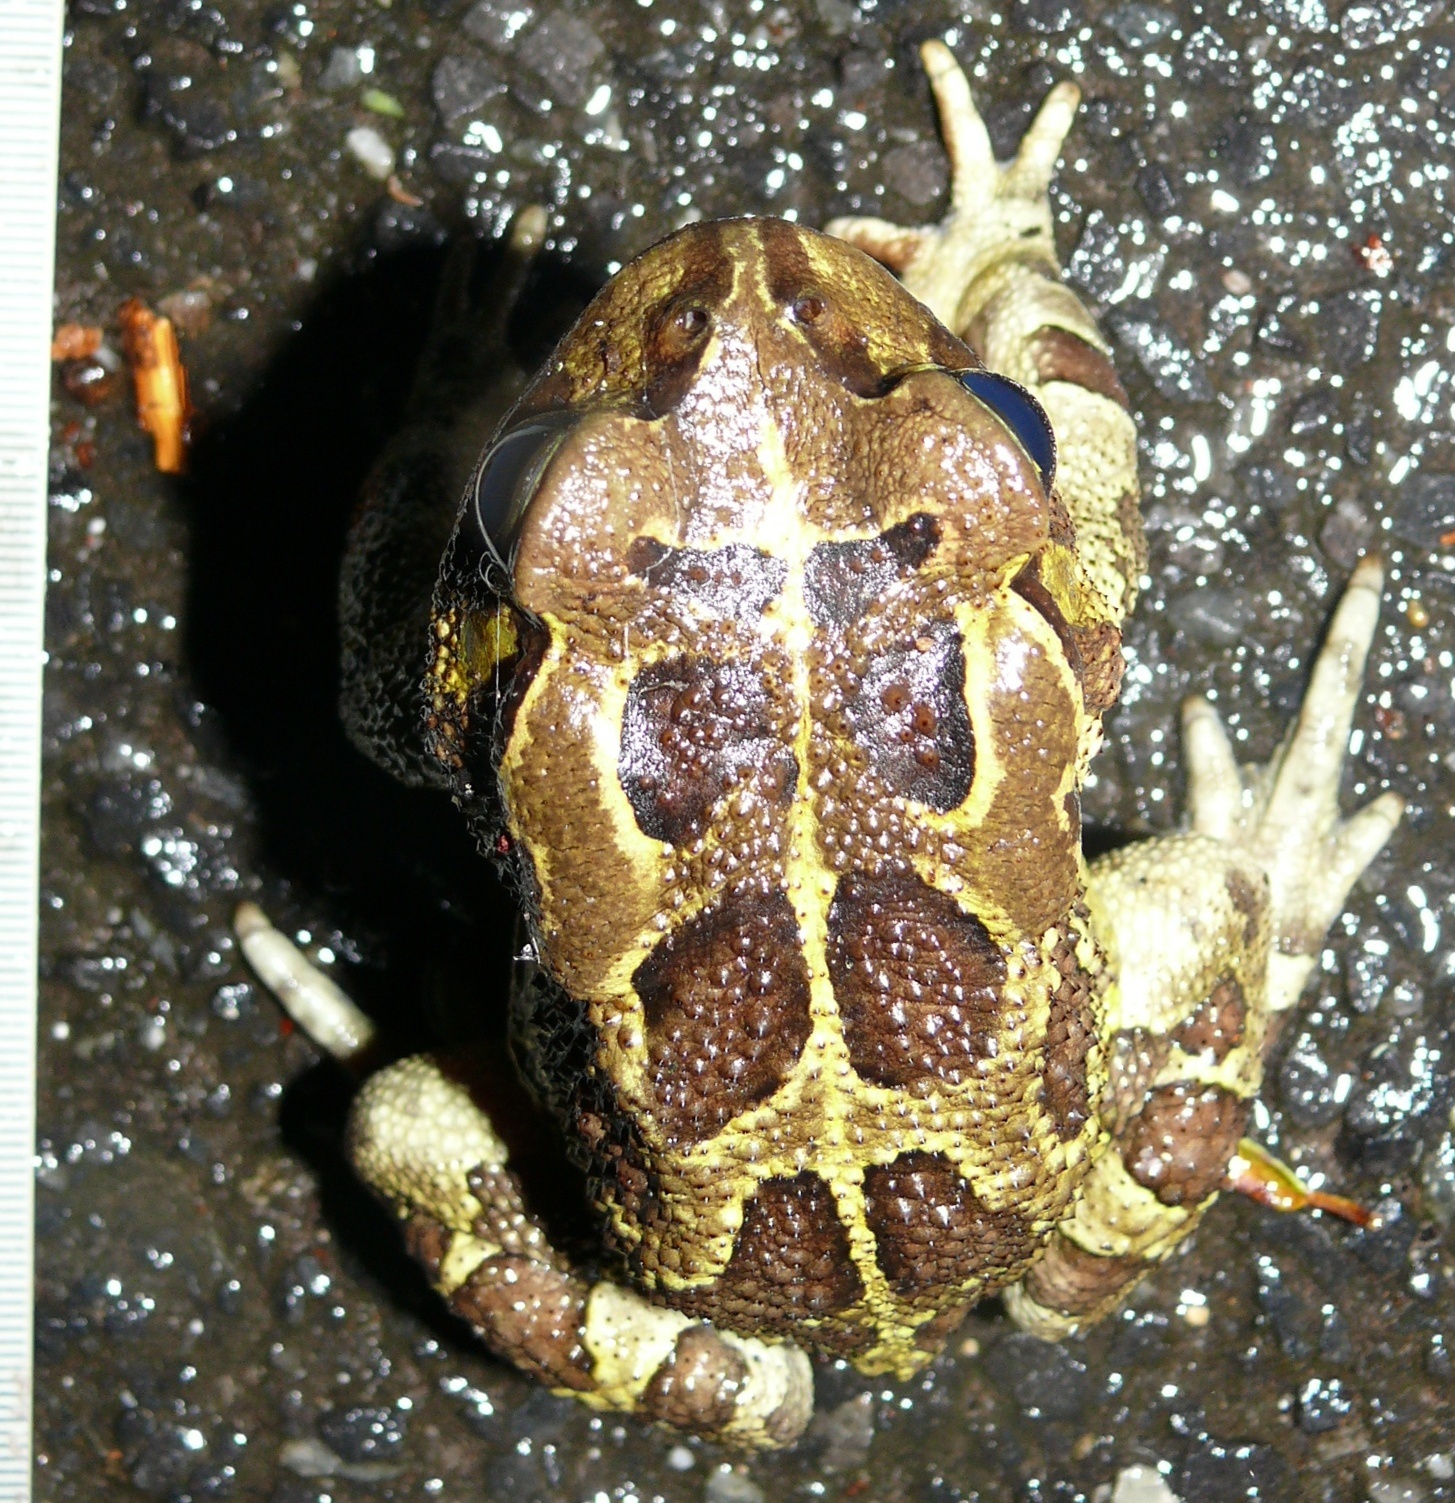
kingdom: Animalia
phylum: Chordata
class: Amphibia
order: Anura
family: Bufonidae
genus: Sclerophrys
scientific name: Sclerophrys pantherina
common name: Panther toad
